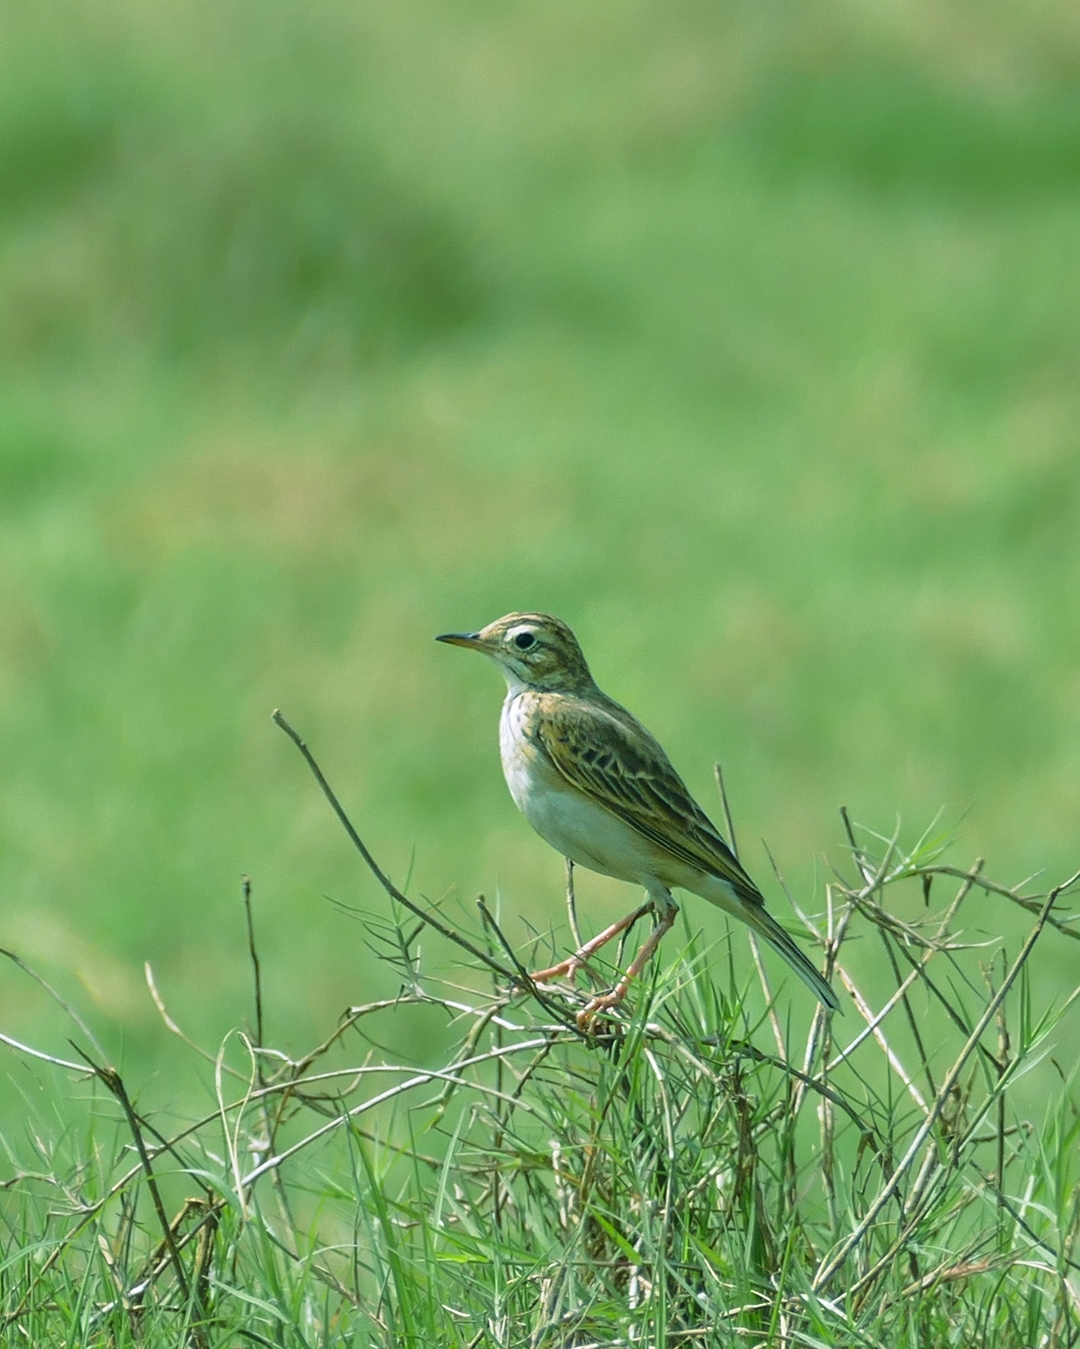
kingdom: Animalia
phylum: Chordata
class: Aves
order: Passeriformes
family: Motacillidae
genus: Anthus
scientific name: Anthus rufulus
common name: Paddyfield pipit
